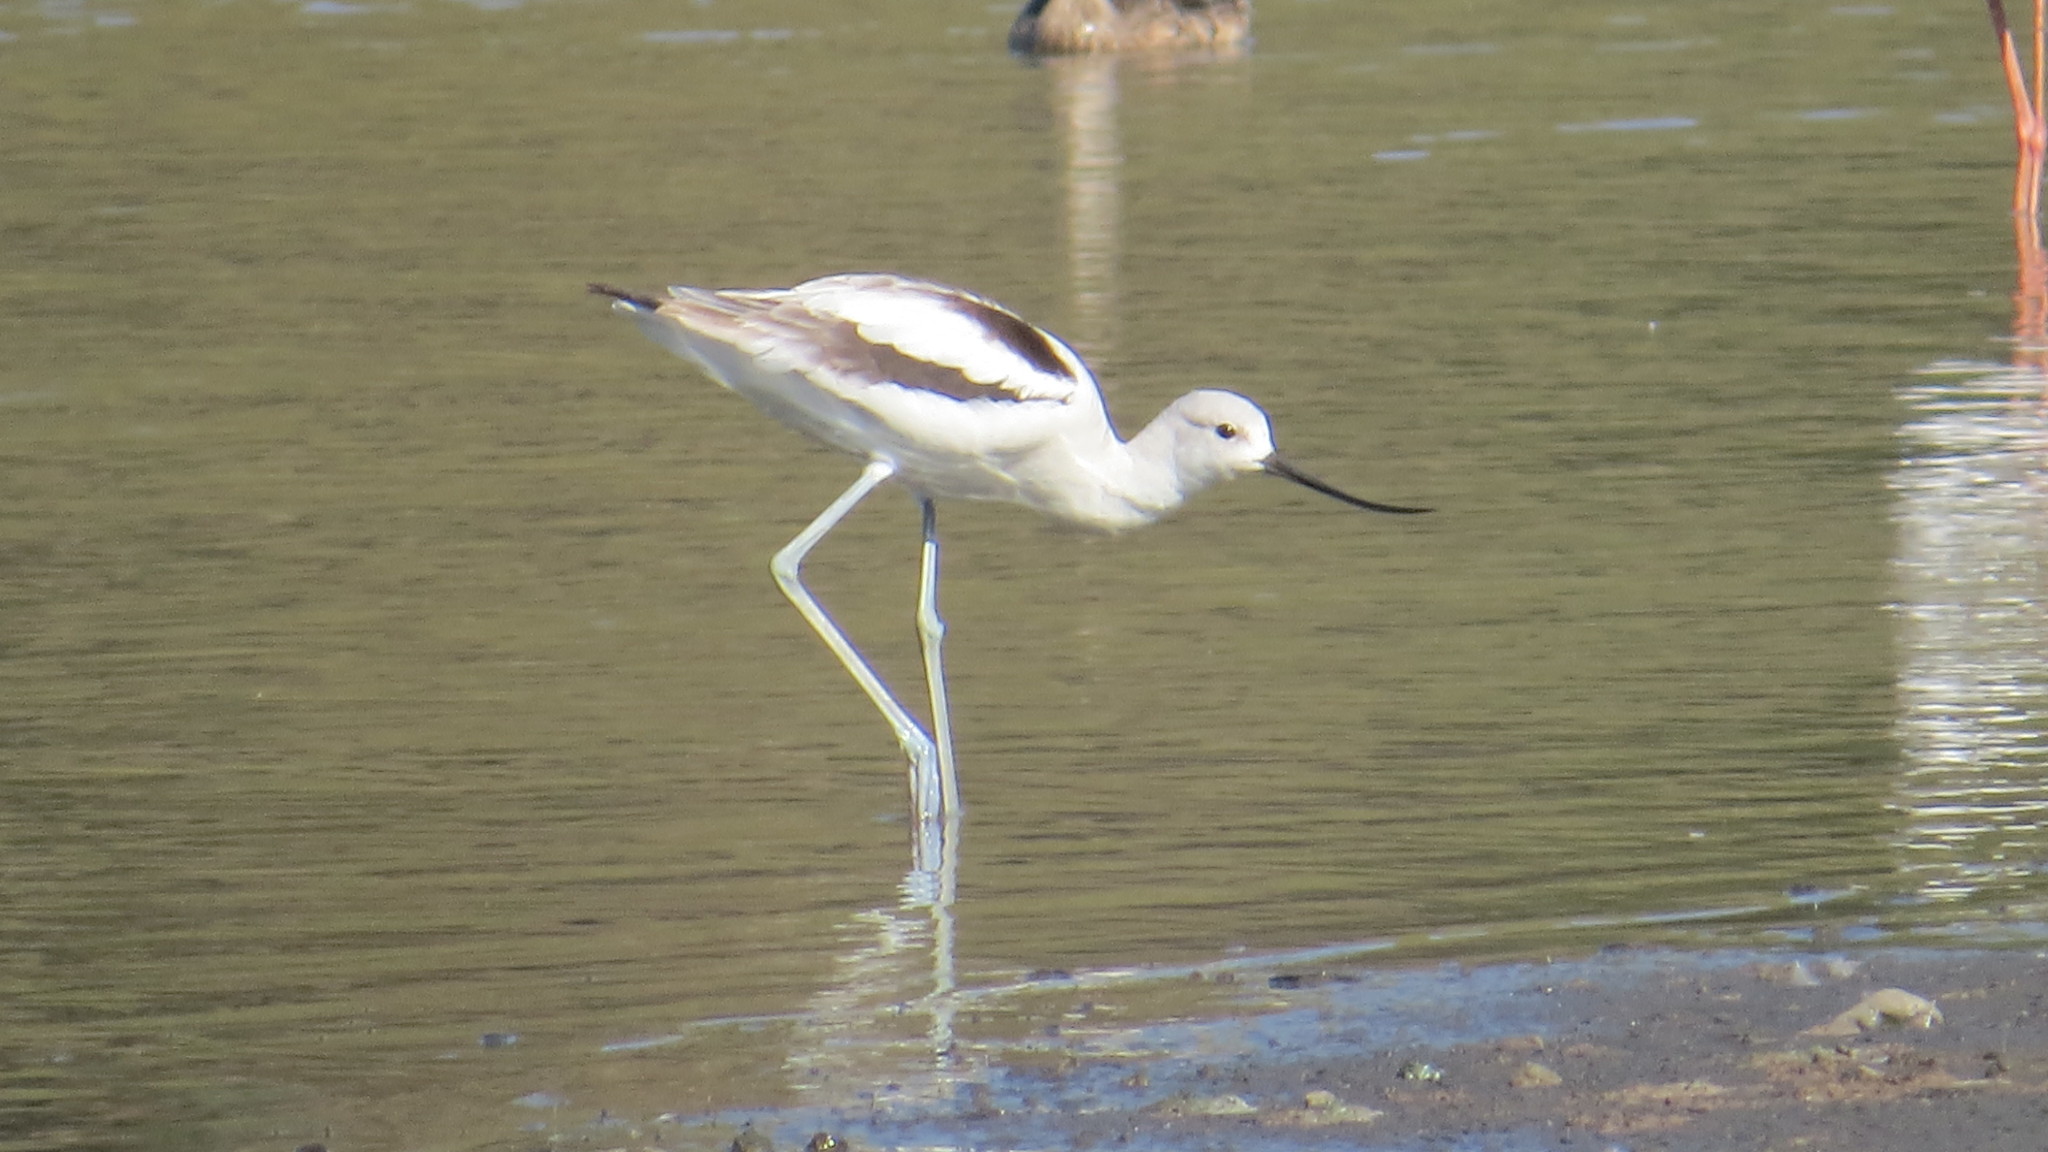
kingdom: Animalia
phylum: Chordata
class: Aves
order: Charadriiformes
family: Recurvirostridae
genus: Recurvirostra
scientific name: Recurvirostra americana
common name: American avocet
